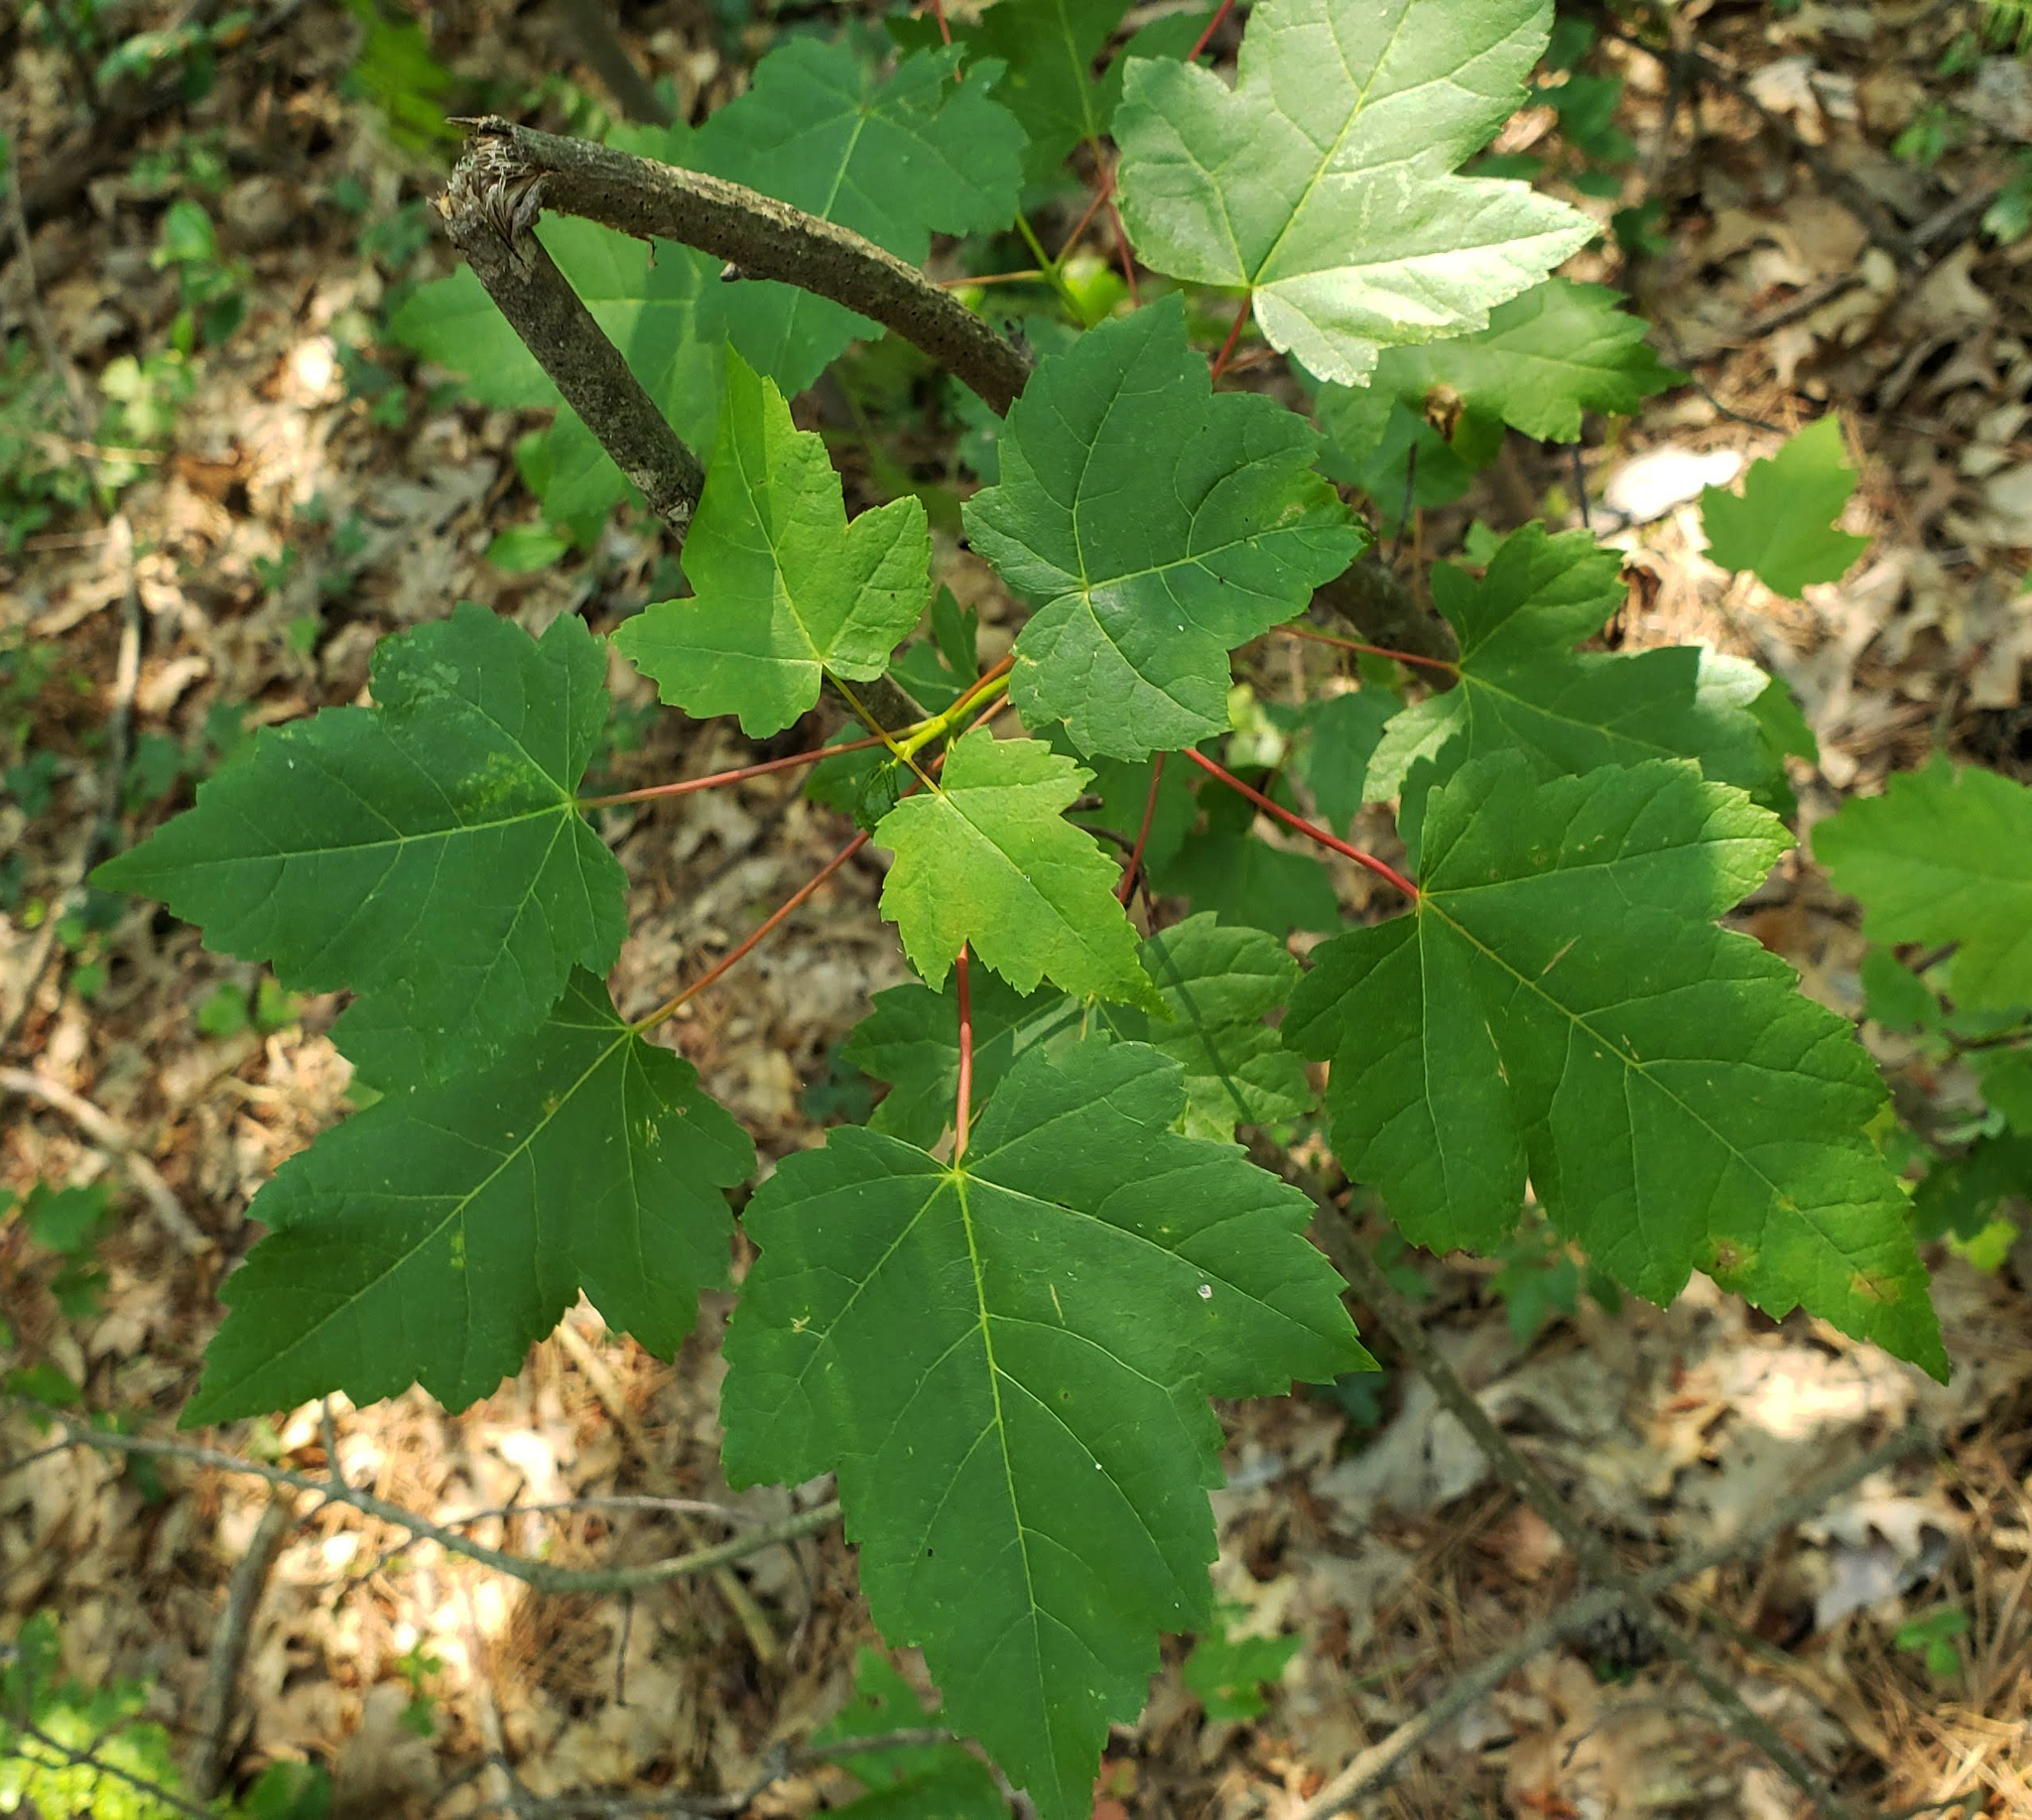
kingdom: Plantae
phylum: Tracheophyta
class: Magnoliopsida
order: Sapindales
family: Sapindaceae
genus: Acer
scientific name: Acer rubrum
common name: Red maple
